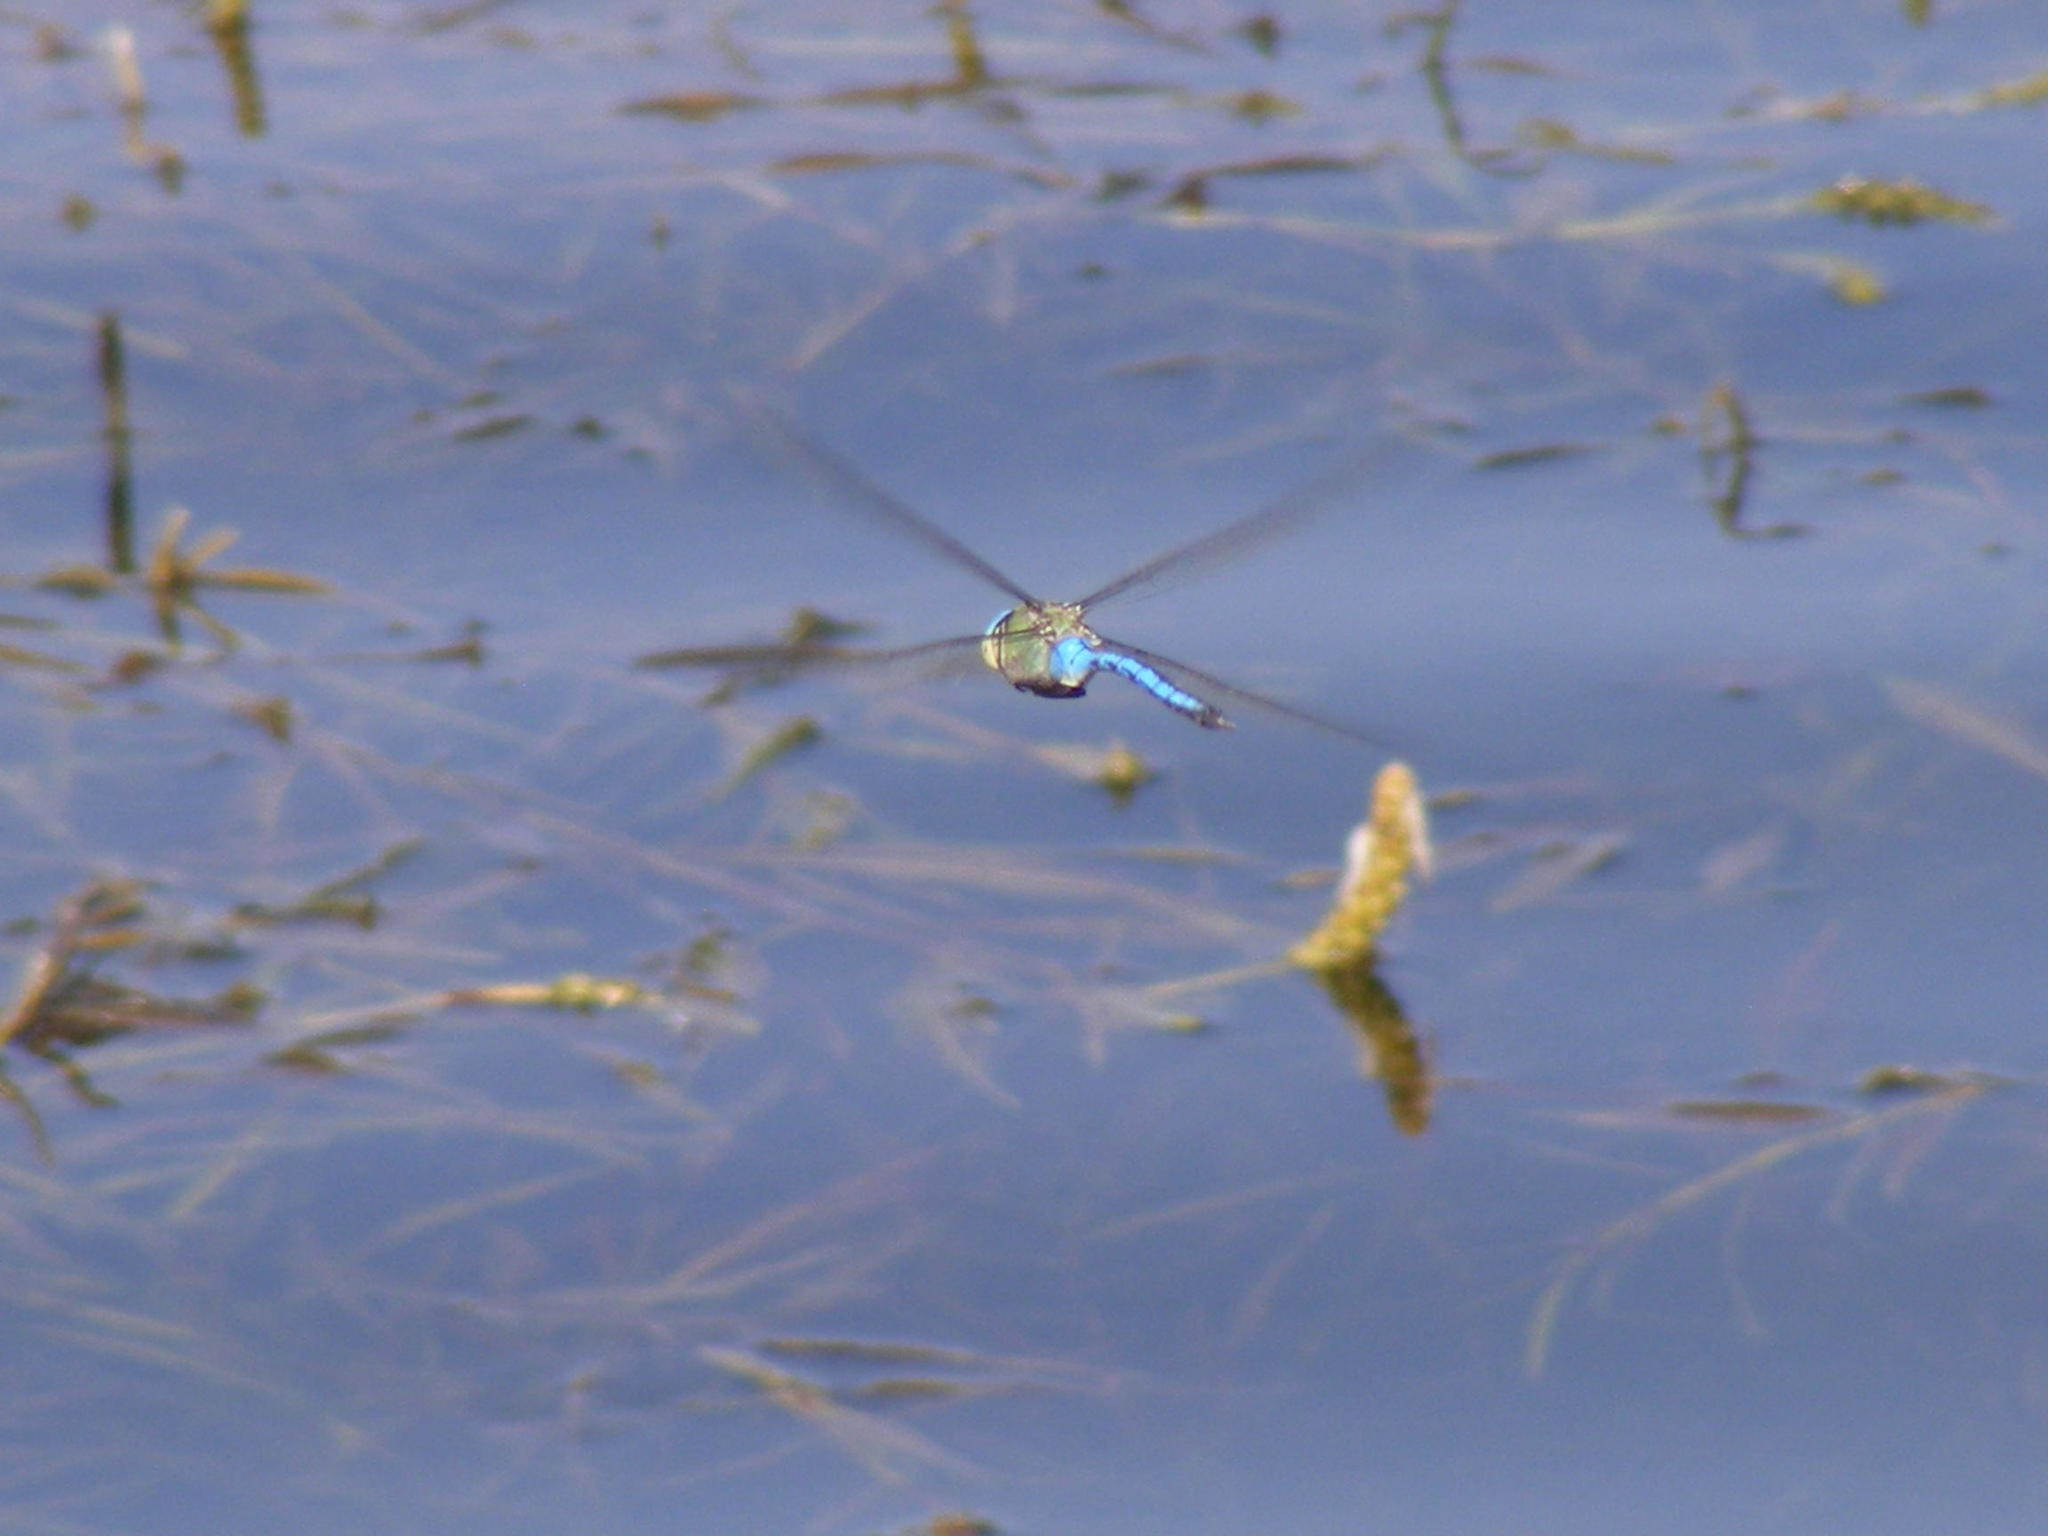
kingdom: Animalia
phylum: Arthropoda
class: Insecta
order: Odonata
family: Aeshnidae
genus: Anax
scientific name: Anax imperator
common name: Emperor dragonfly
